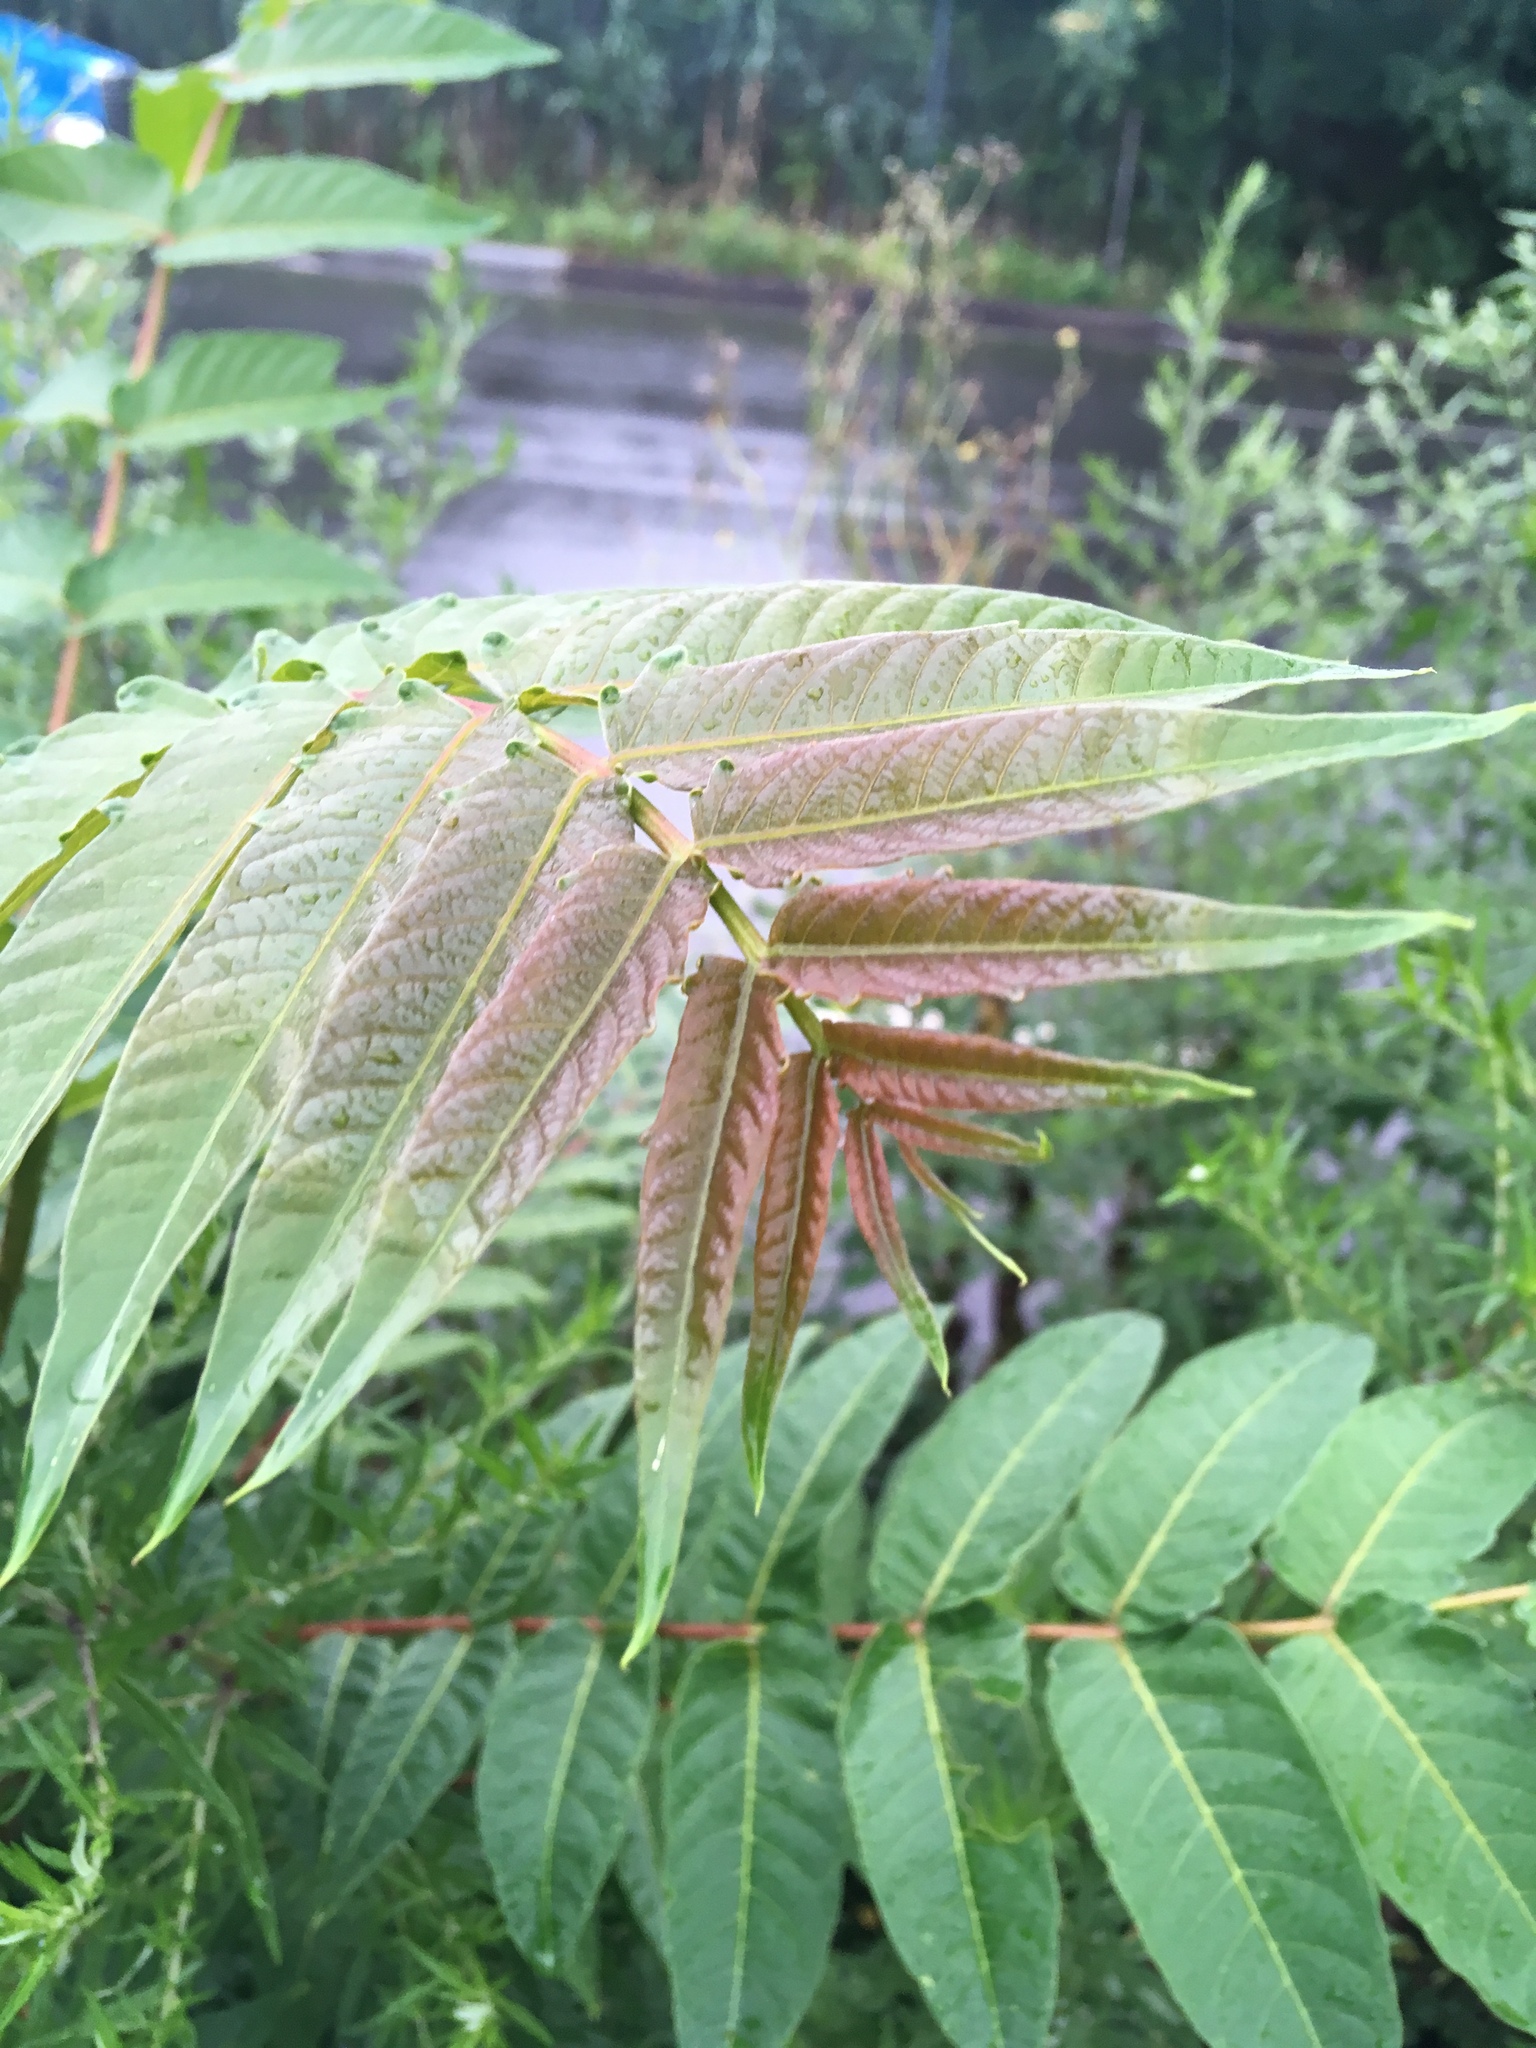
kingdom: Plantae
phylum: Tracheophyta
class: Magnoliopsida
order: Sapindales
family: Simaroubaceae
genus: Ailanthus
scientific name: Ailanthus altissima
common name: Tree-of-heaven
